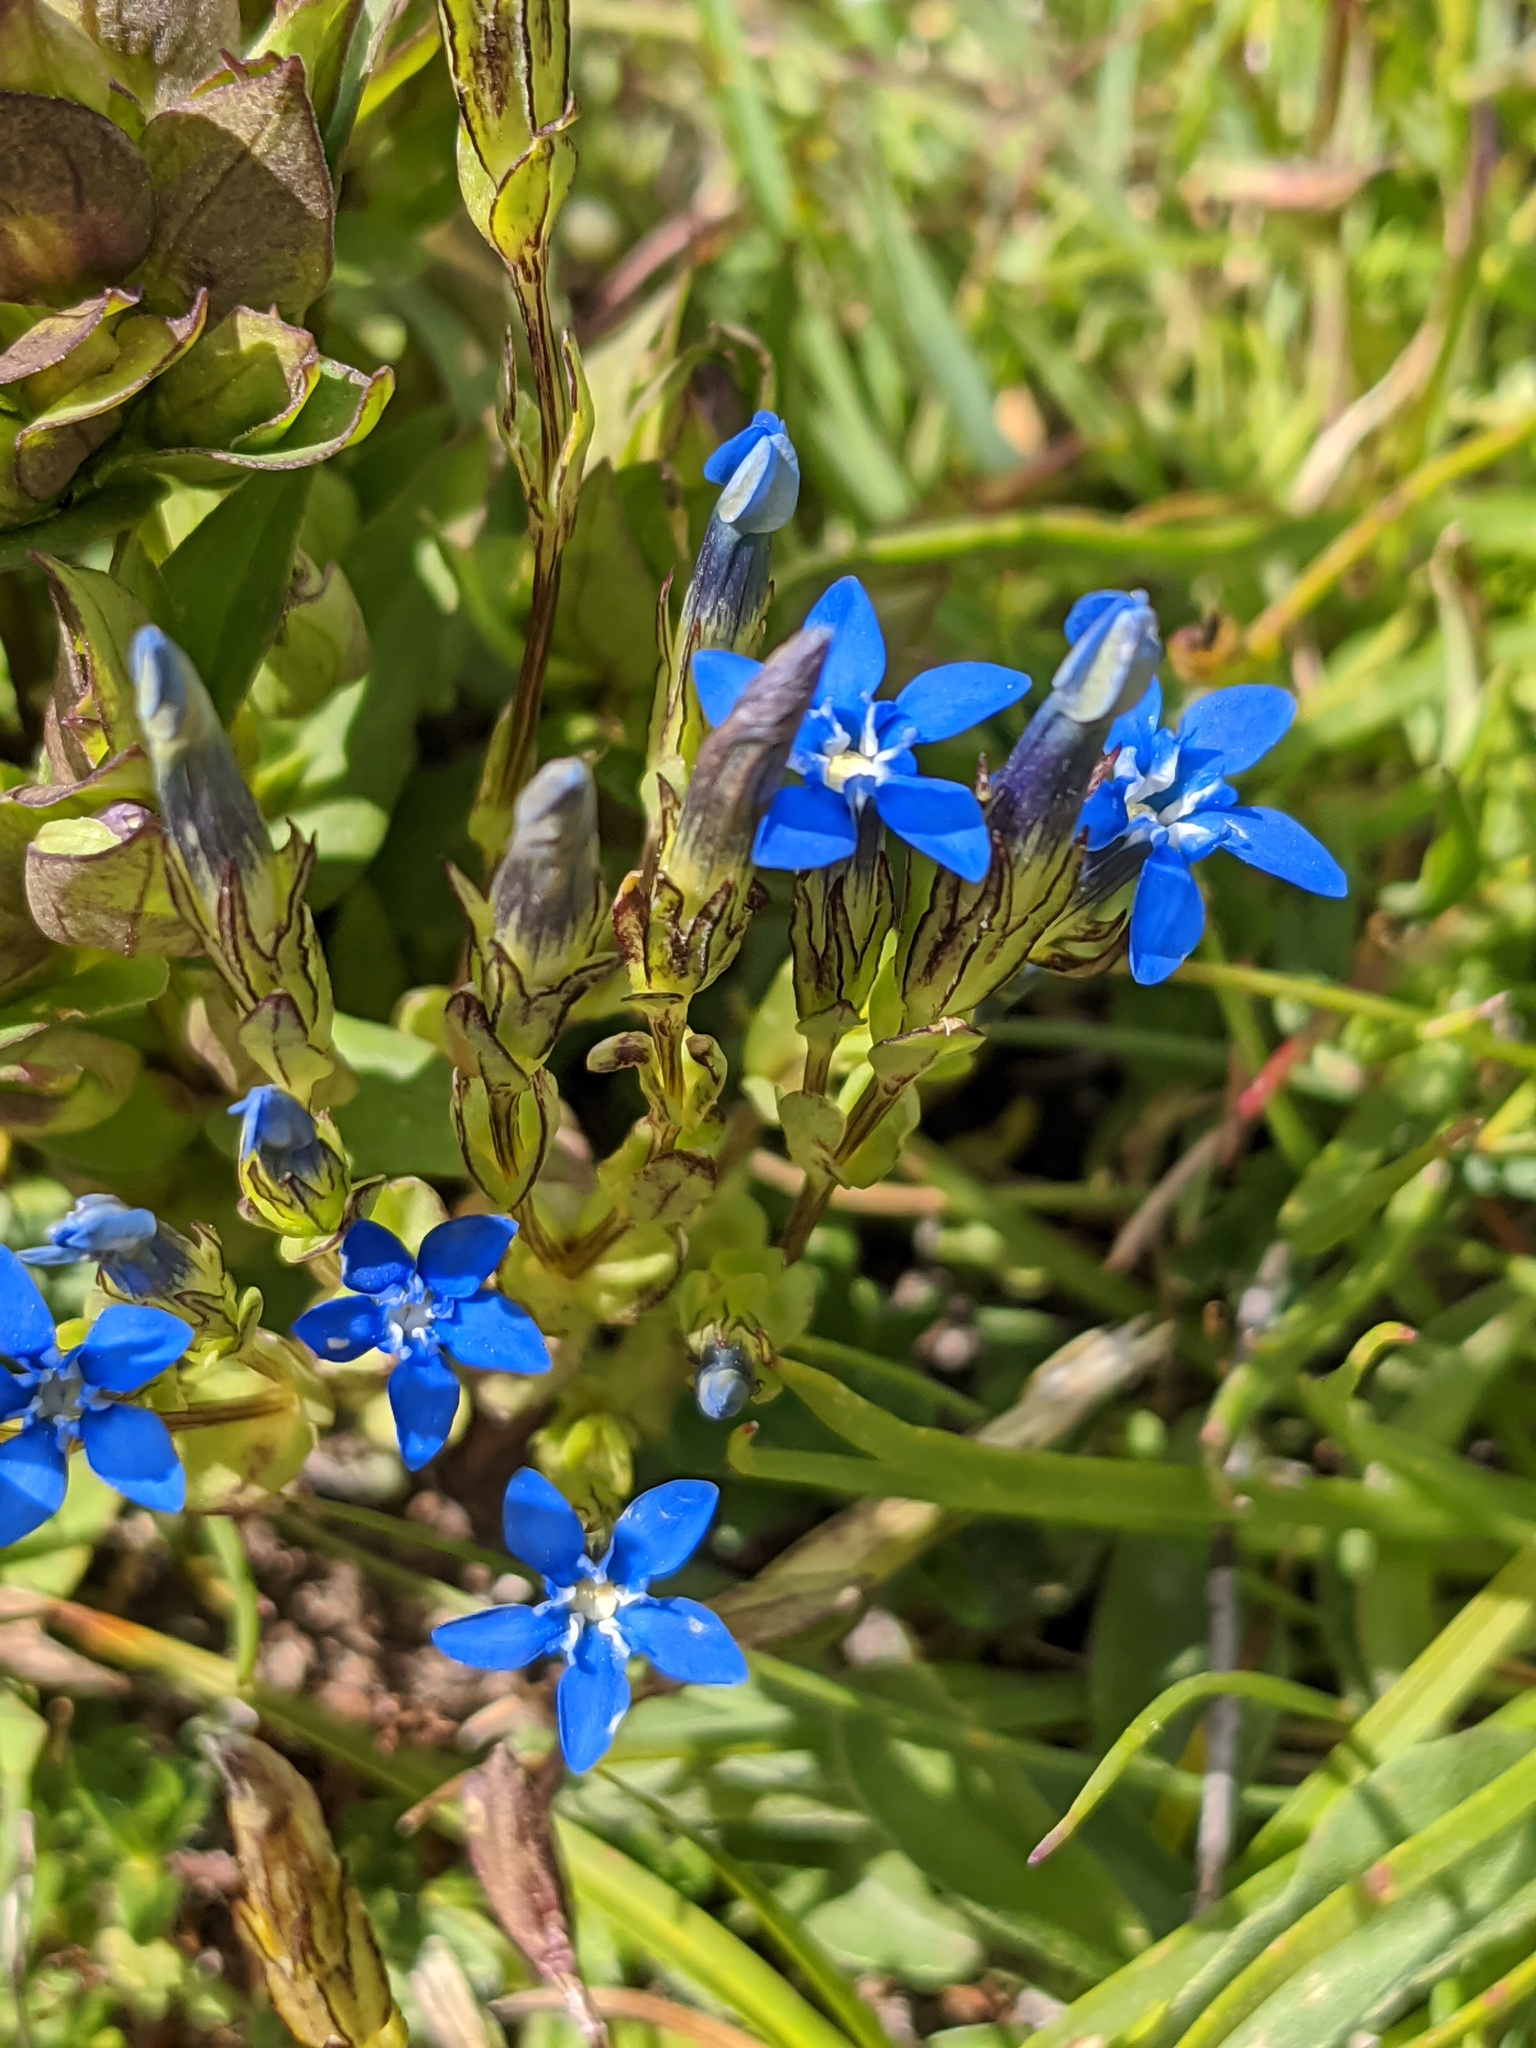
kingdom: Plantae
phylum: Tracheophyta
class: Magnoliopsida
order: Gentianales
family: Gentianaceae
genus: Gentiana
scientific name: Gentiana nivalis
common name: Alpine gentian
